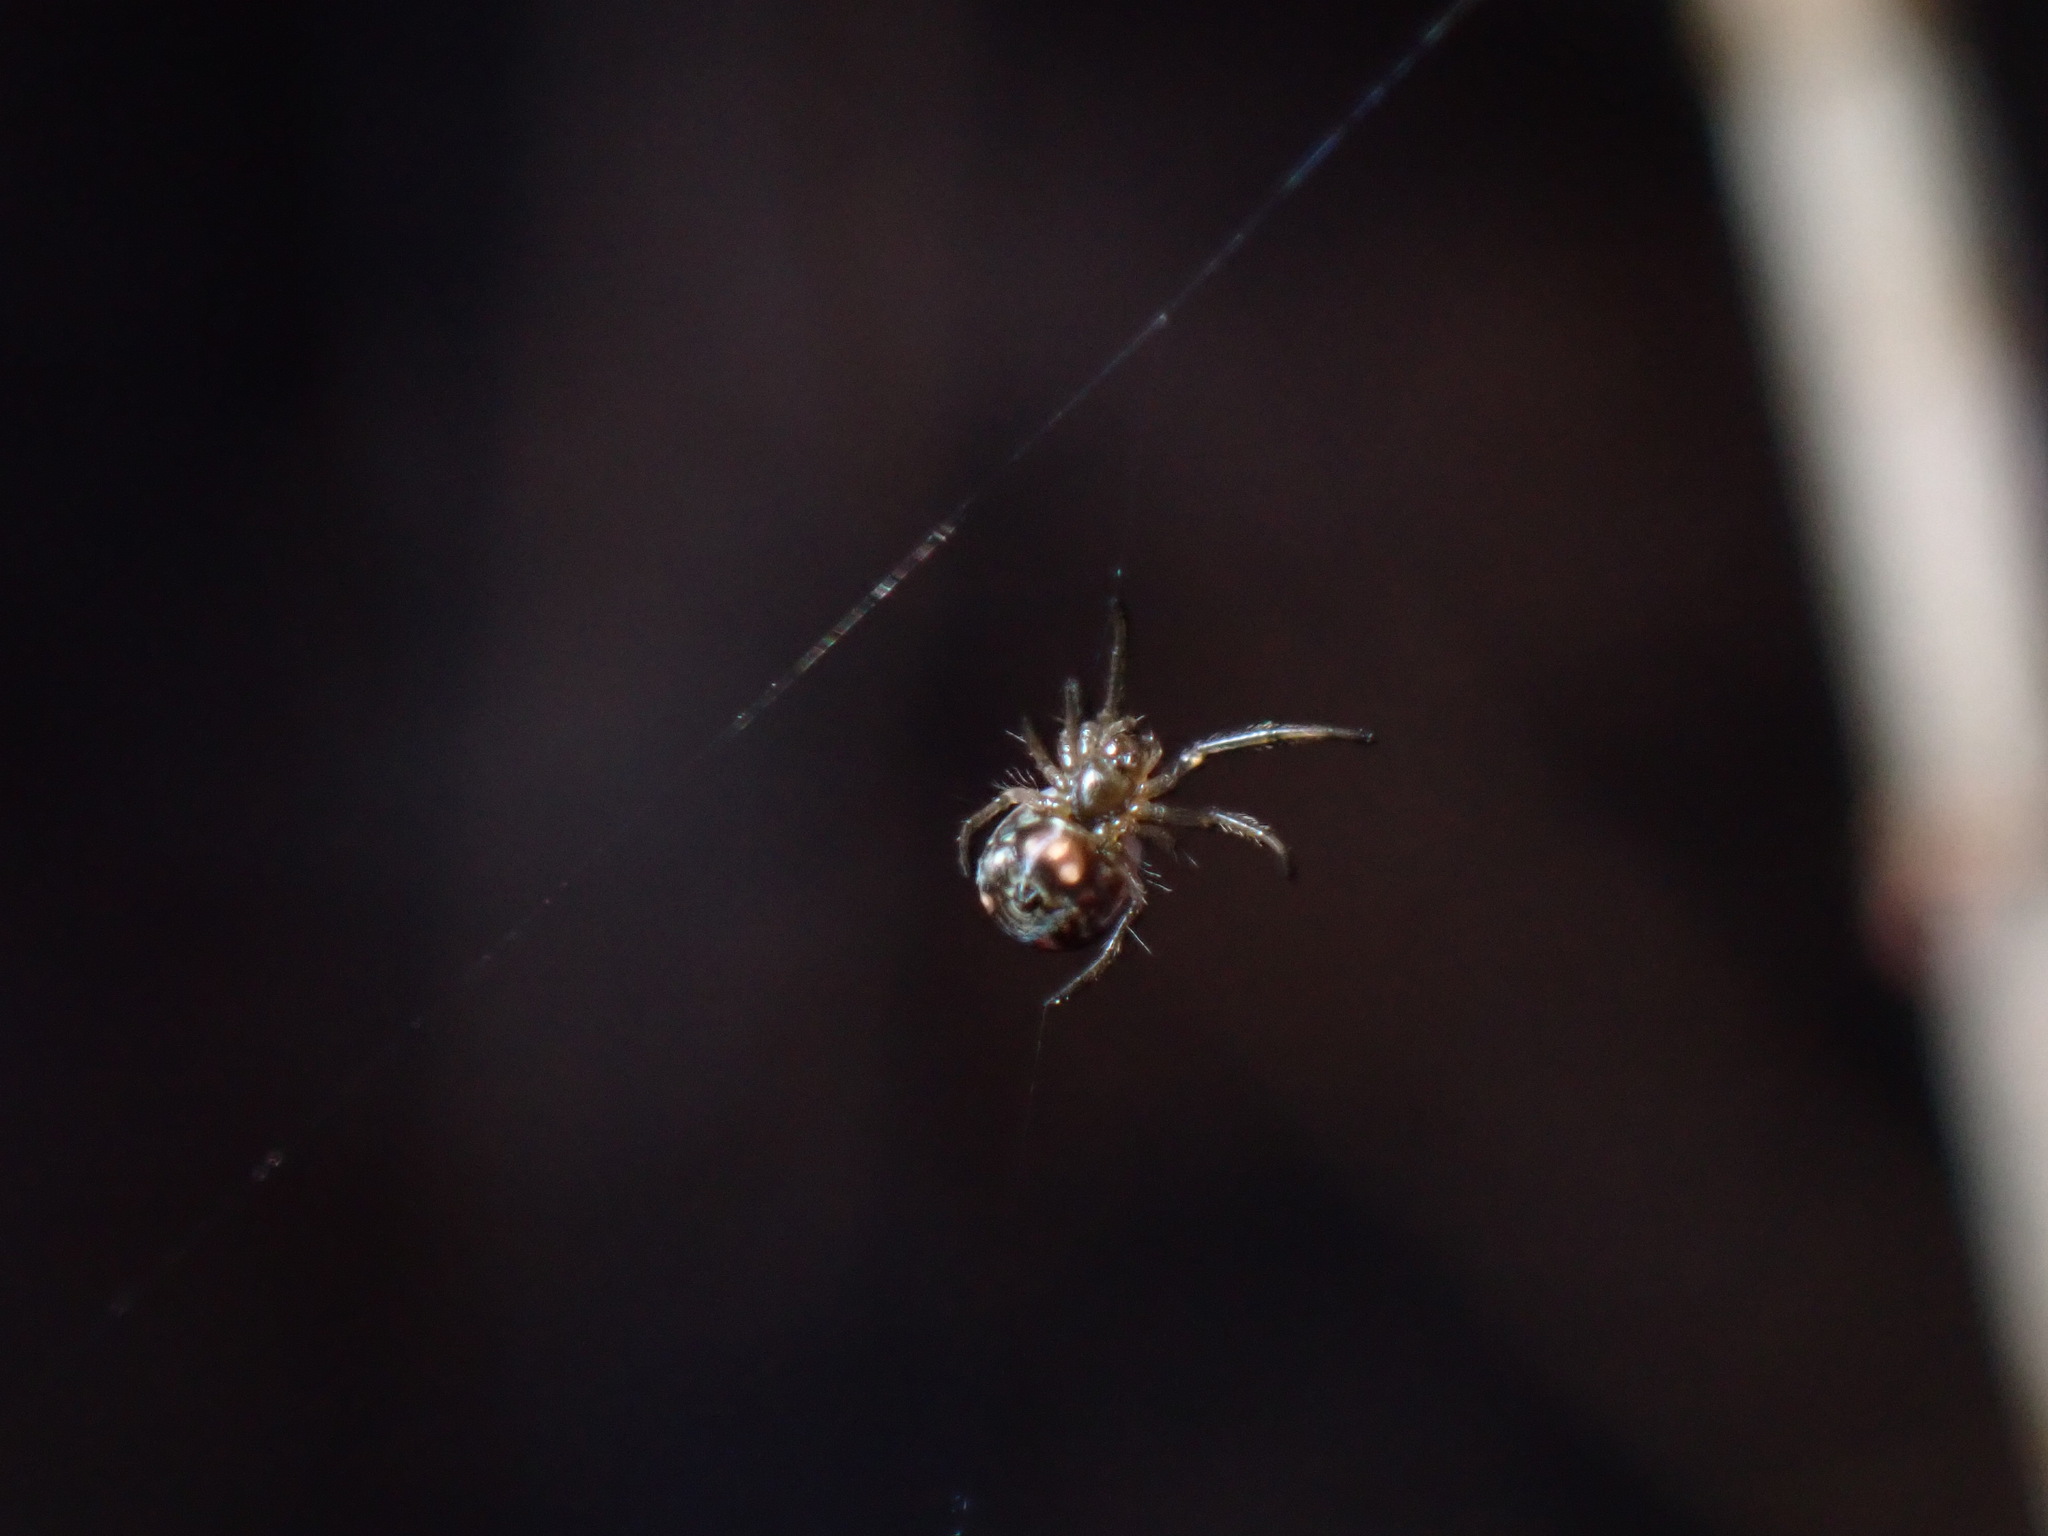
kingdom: Animalia
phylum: Arthropoda
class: Arachnida
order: Araneae
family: Tetragnathidae
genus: Leucauge
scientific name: Leucauge venusta
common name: Longjawed orb weavers
